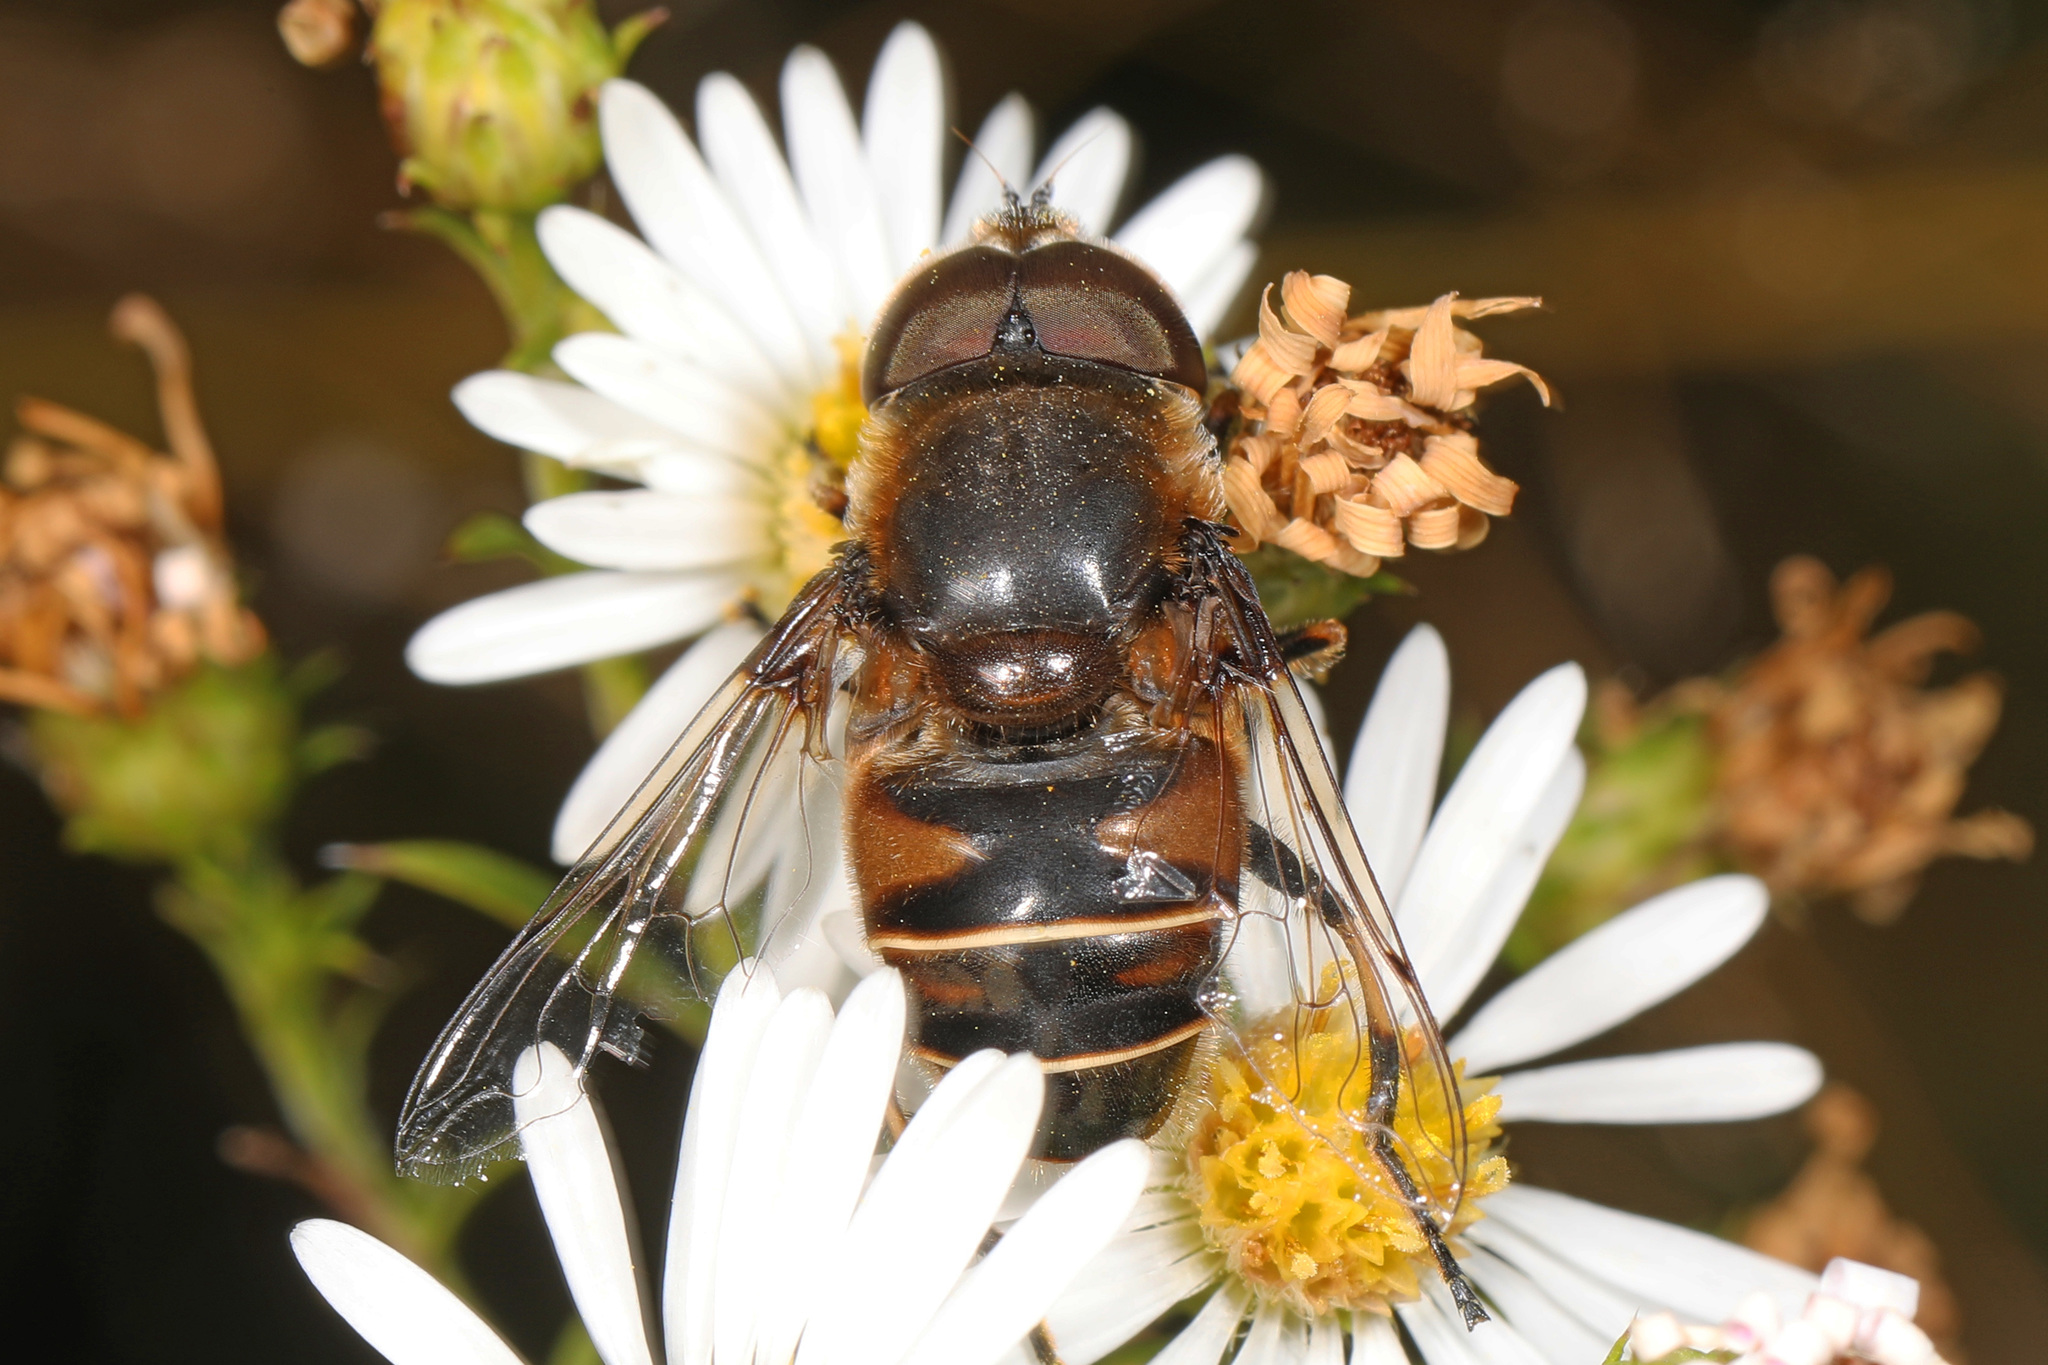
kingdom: Animalia
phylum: Arthropoda
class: Insecta
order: Diptera
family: Syrphidae
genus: Eristalis
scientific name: Eristalis dimidiata
